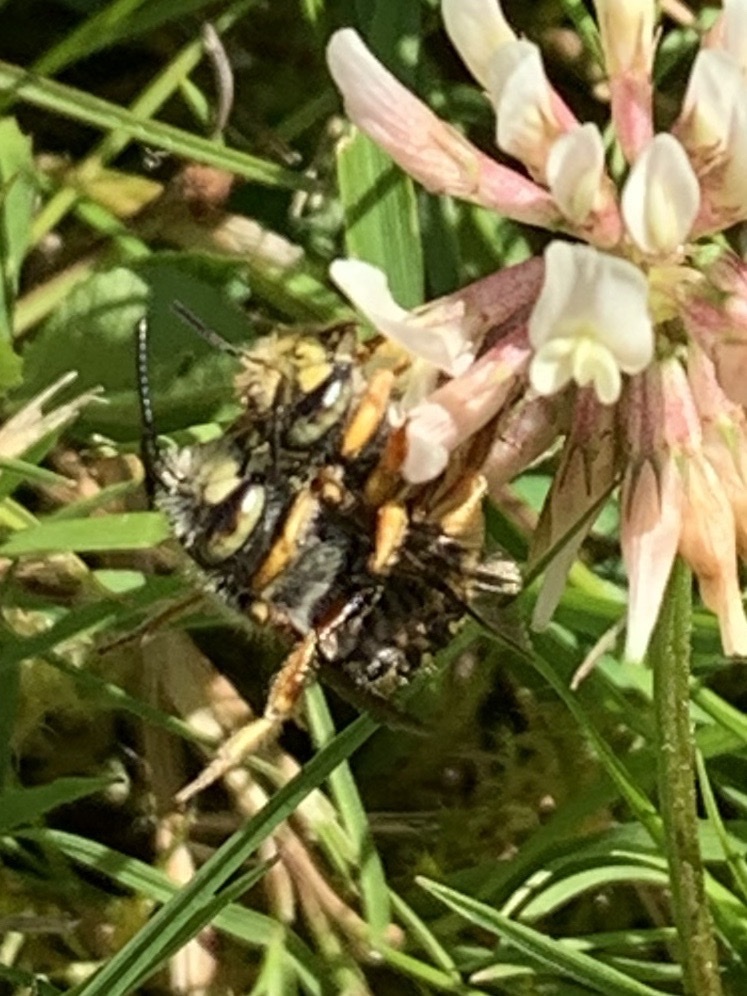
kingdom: Animalia
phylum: Arthropoda
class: Insecta
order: Hymenoptera
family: Megachilidae
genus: Anthidium
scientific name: Anthidium oblongatum
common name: Oblong wool carder bee
